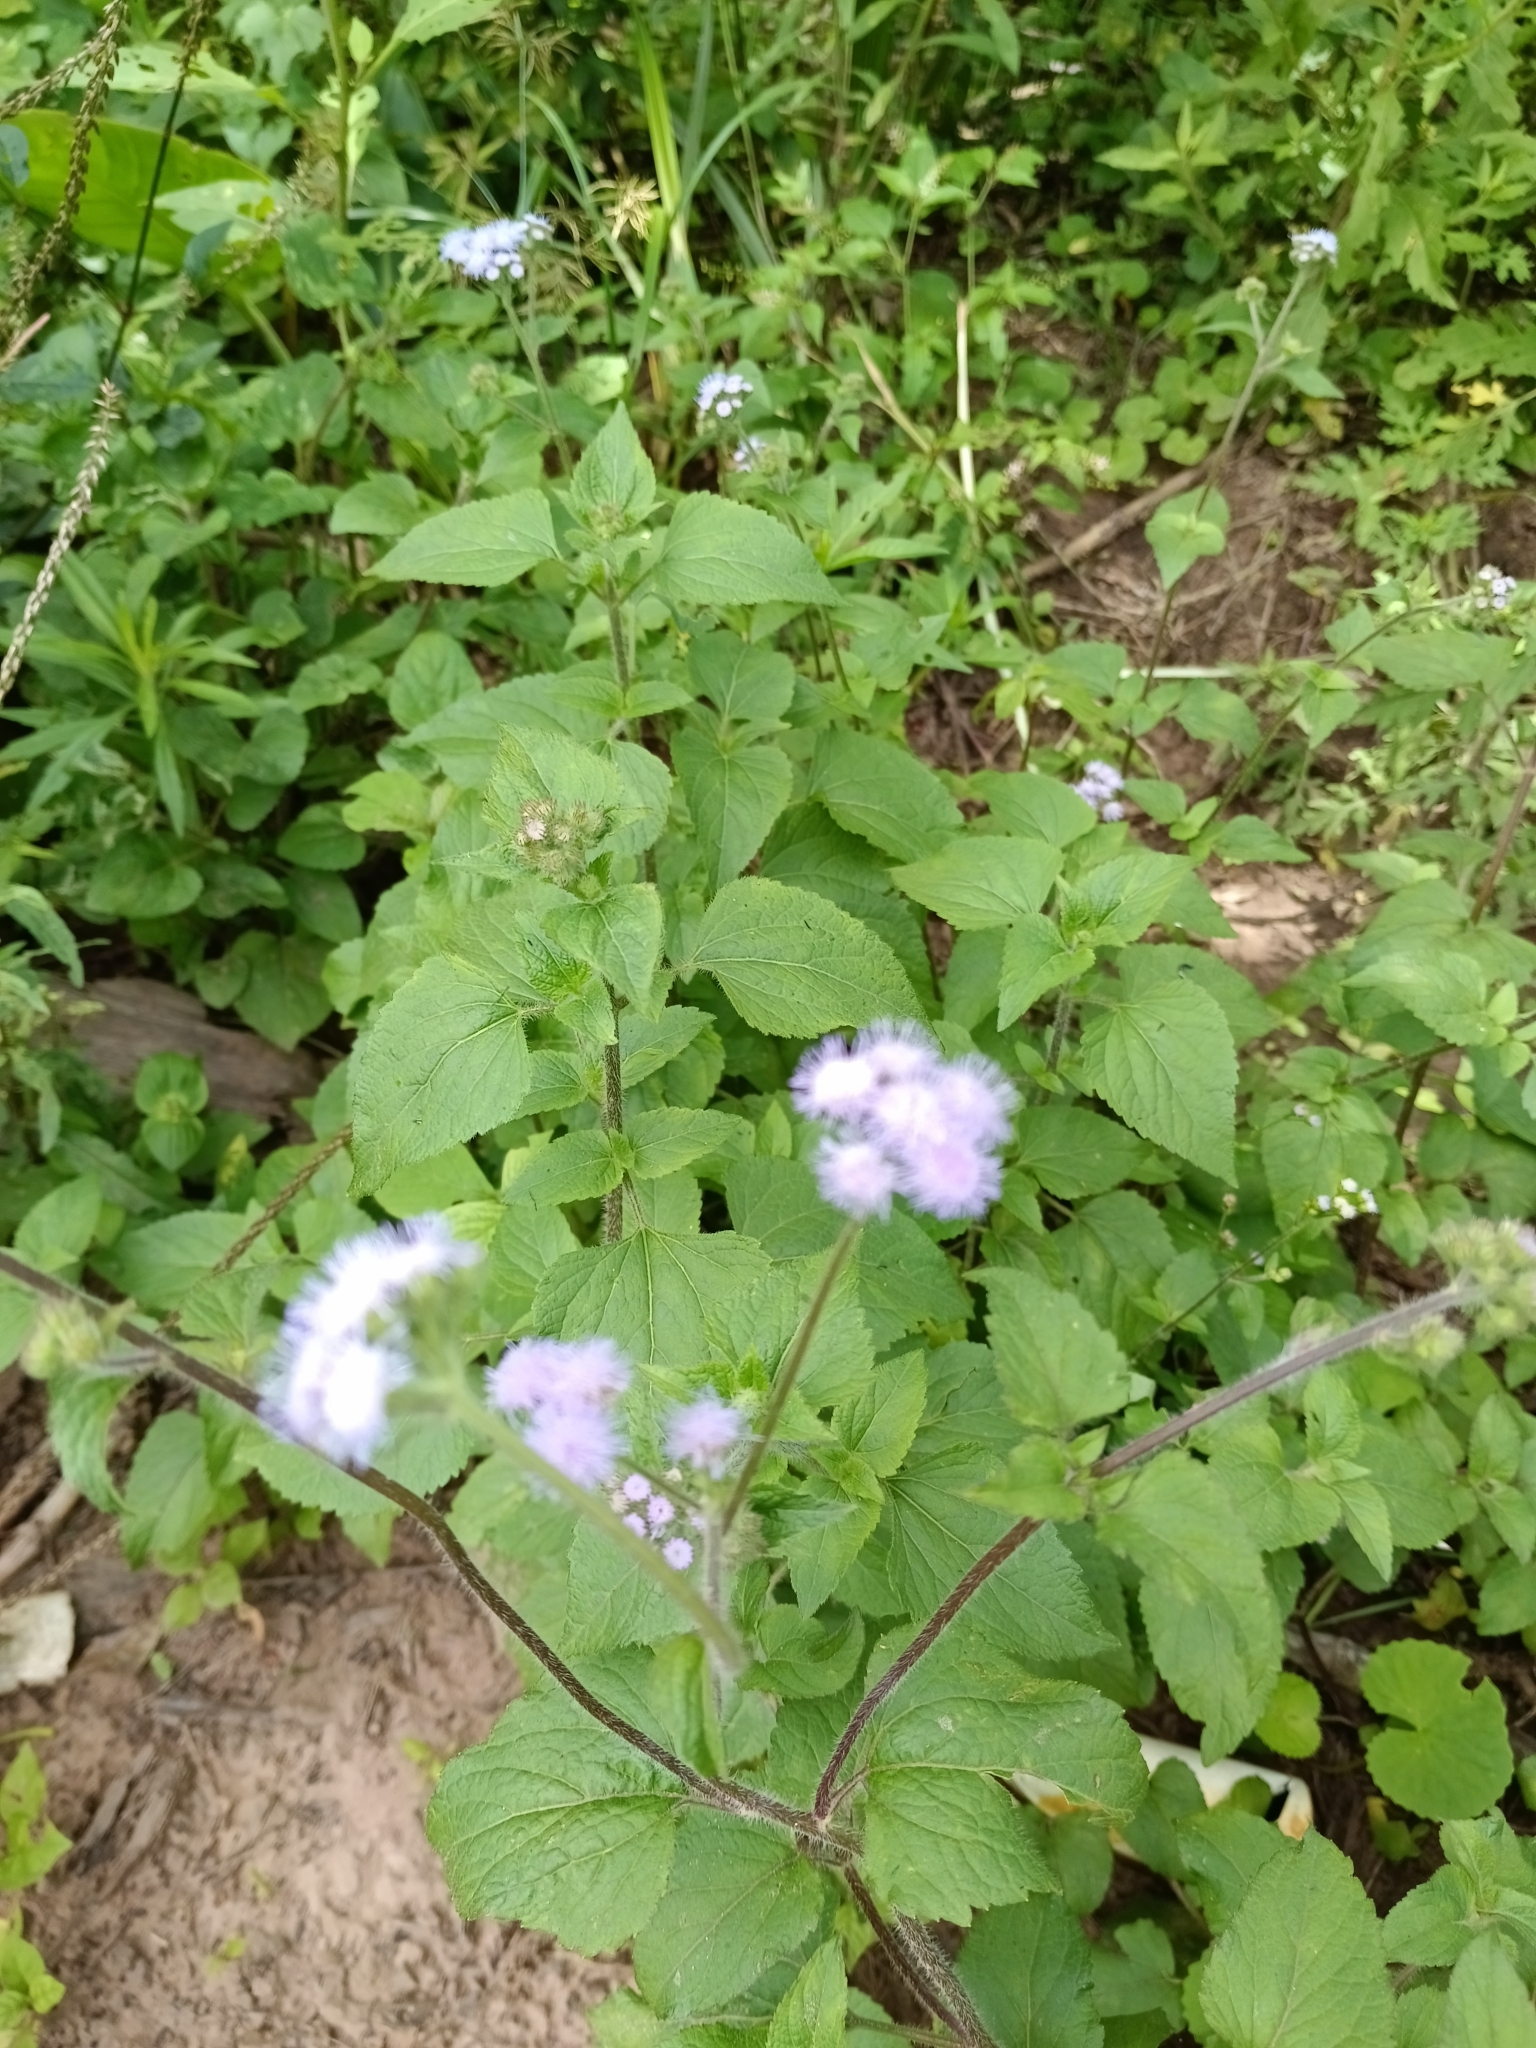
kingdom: Plantae
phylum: Tracheophyta
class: Magnoliopsida
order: Asterales
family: Asteraceae
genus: Ageratum
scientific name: Ageratum houstonianum
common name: Bluemink
